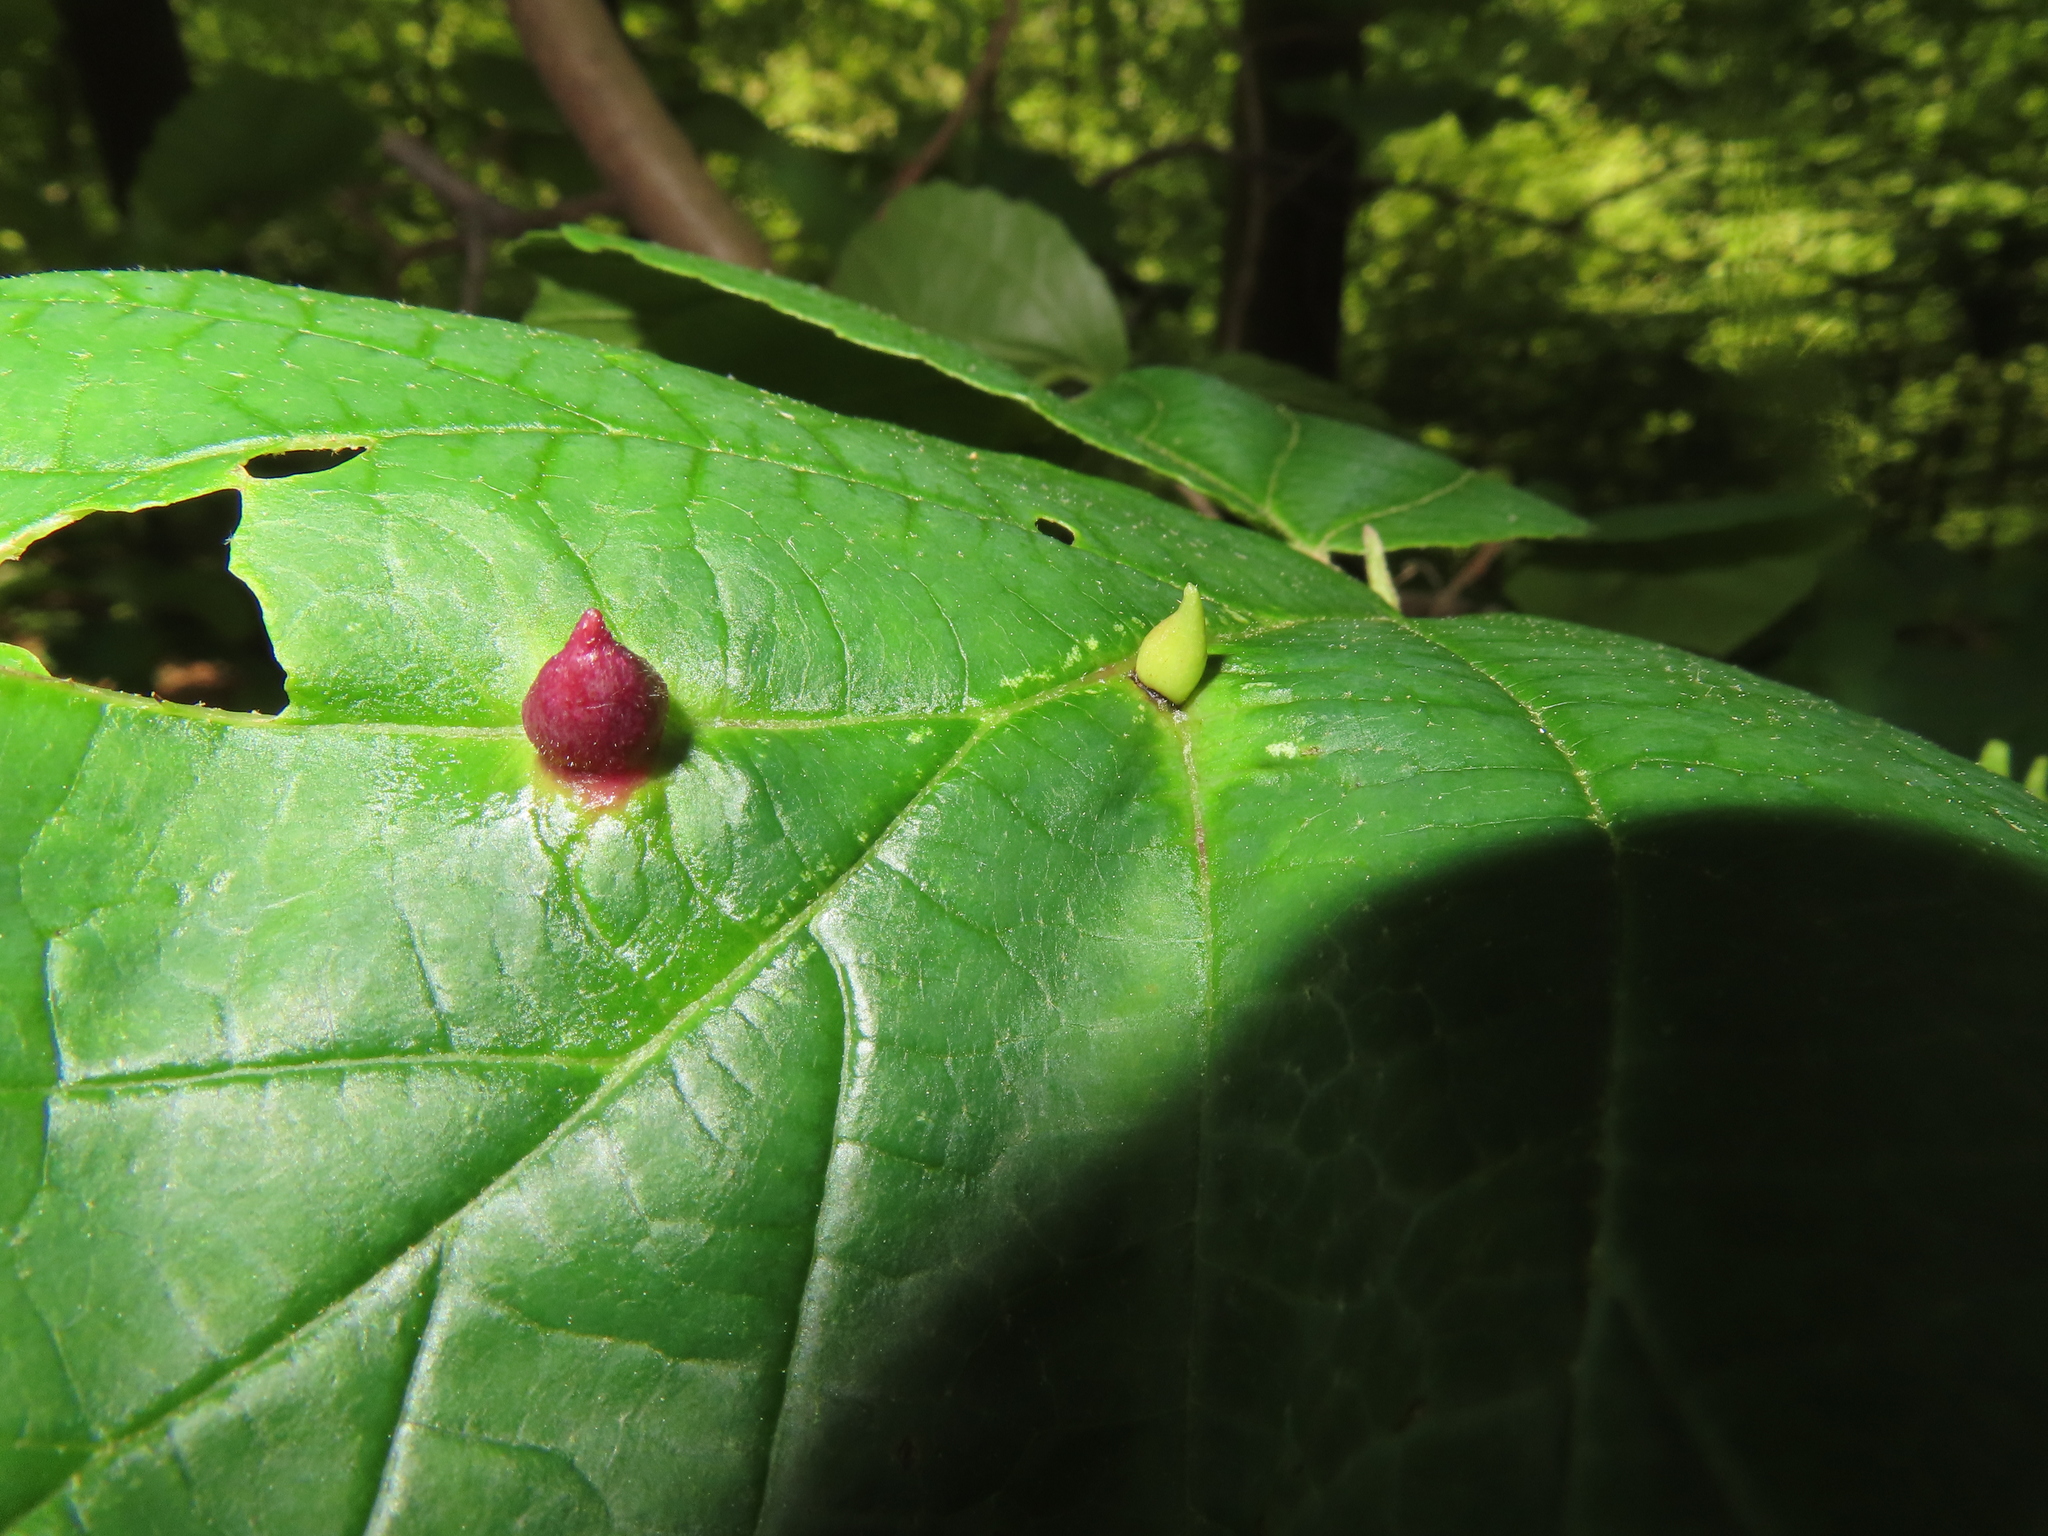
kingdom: Animalia
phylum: Arthropoda
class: Insecta
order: Hemiptera
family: Aphididae
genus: Hormaphis
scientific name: Hormaphis hamamelidis
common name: Witch-hazel cone gall aphid
